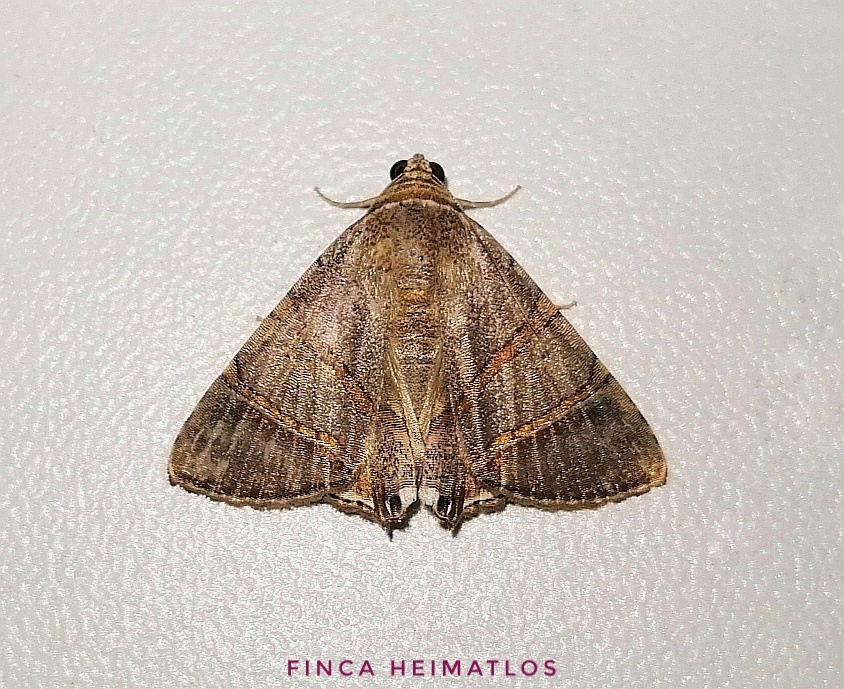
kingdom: Animalia
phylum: Arthropoda
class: Insecta
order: Lepidoptera
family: Erebidae
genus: Eulepidotis
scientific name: Eulepidotis juncida
